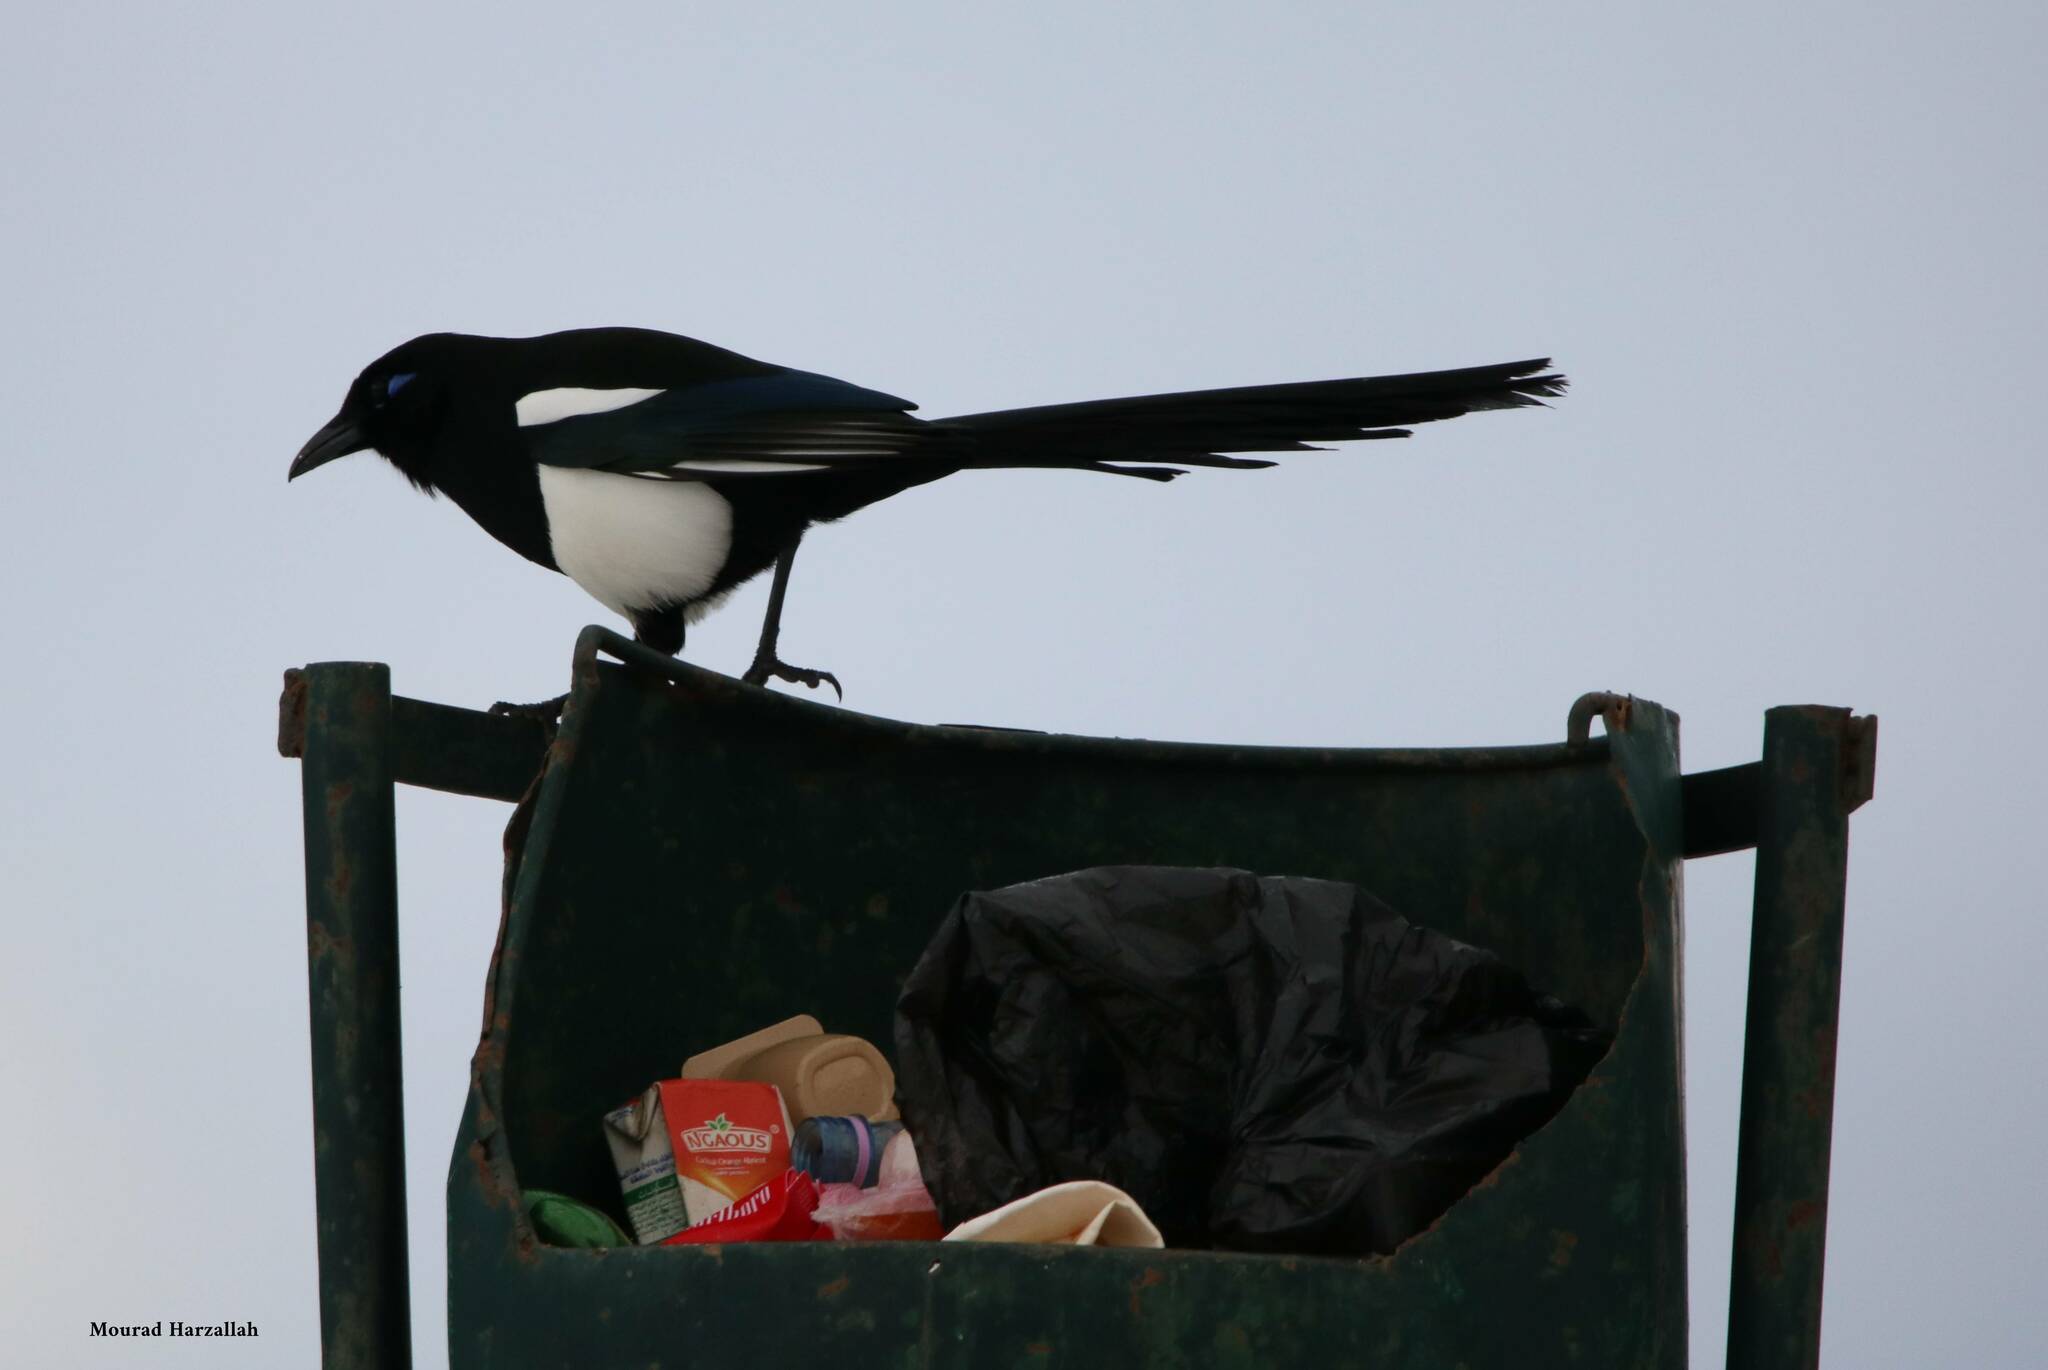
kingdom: Animalia
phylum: Chordata
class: Aves
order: Passeriformes
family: Corvidae
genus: Pica
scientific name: Pica mauritanica
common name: Maghreb magpie
